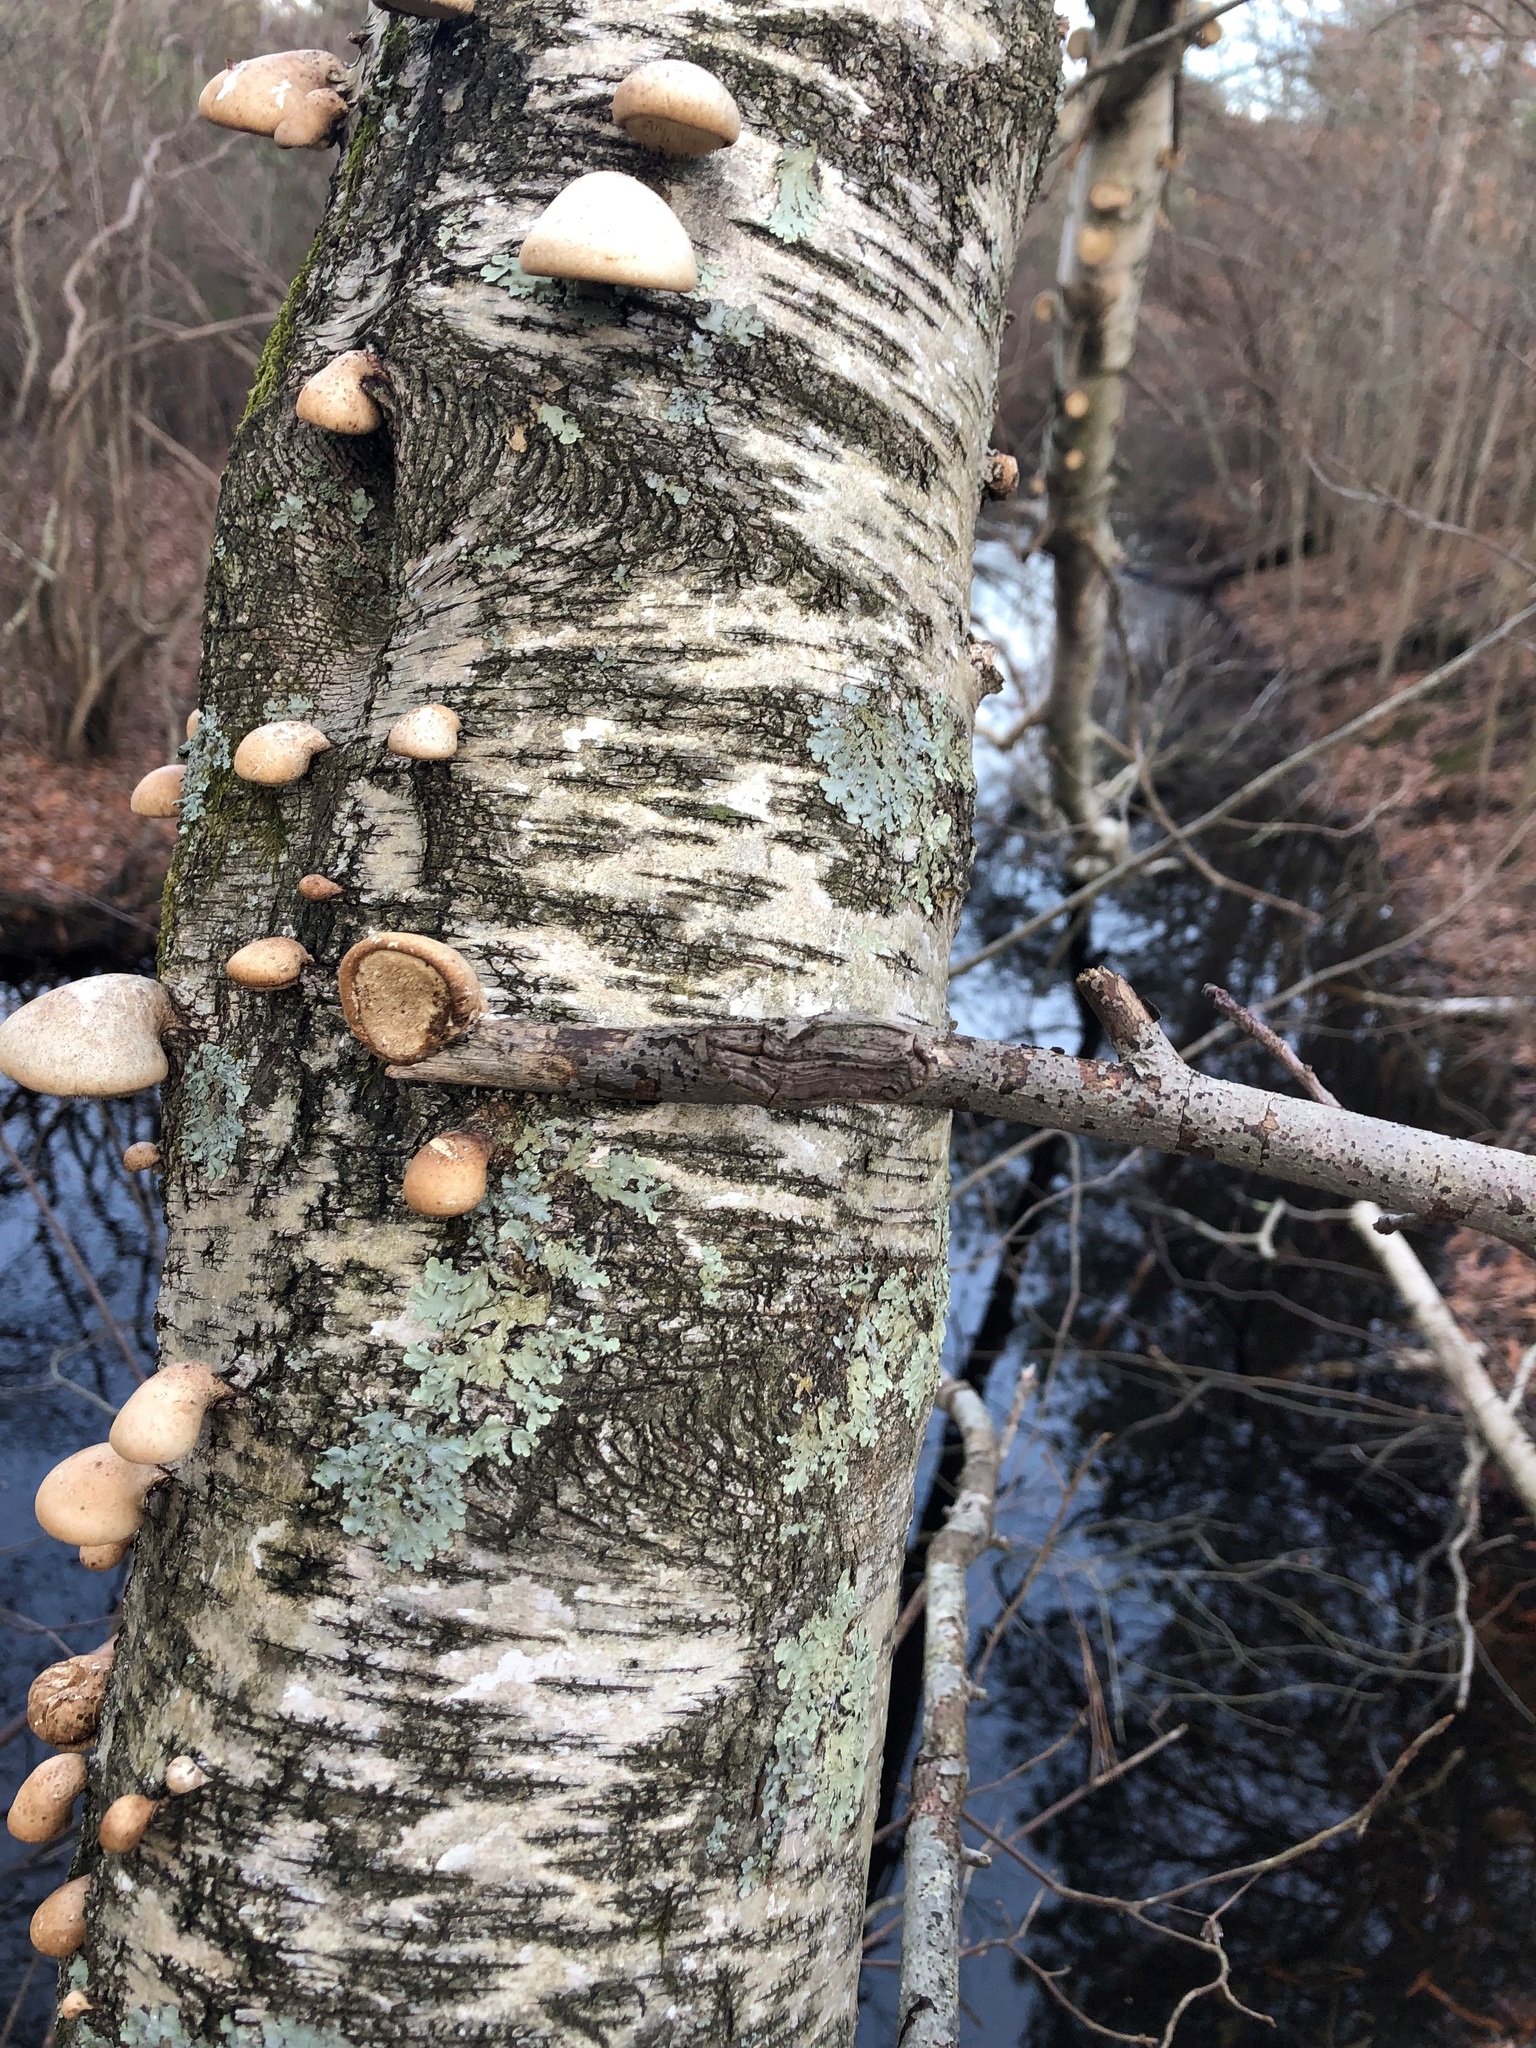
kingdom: Fungi
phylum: Basidiomycota
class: Agaricomycetes
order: Polyporales
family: Fomitopsidaceae
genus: Fomitopsis
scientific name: Fomitopsis betulina
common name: Birch polypore
